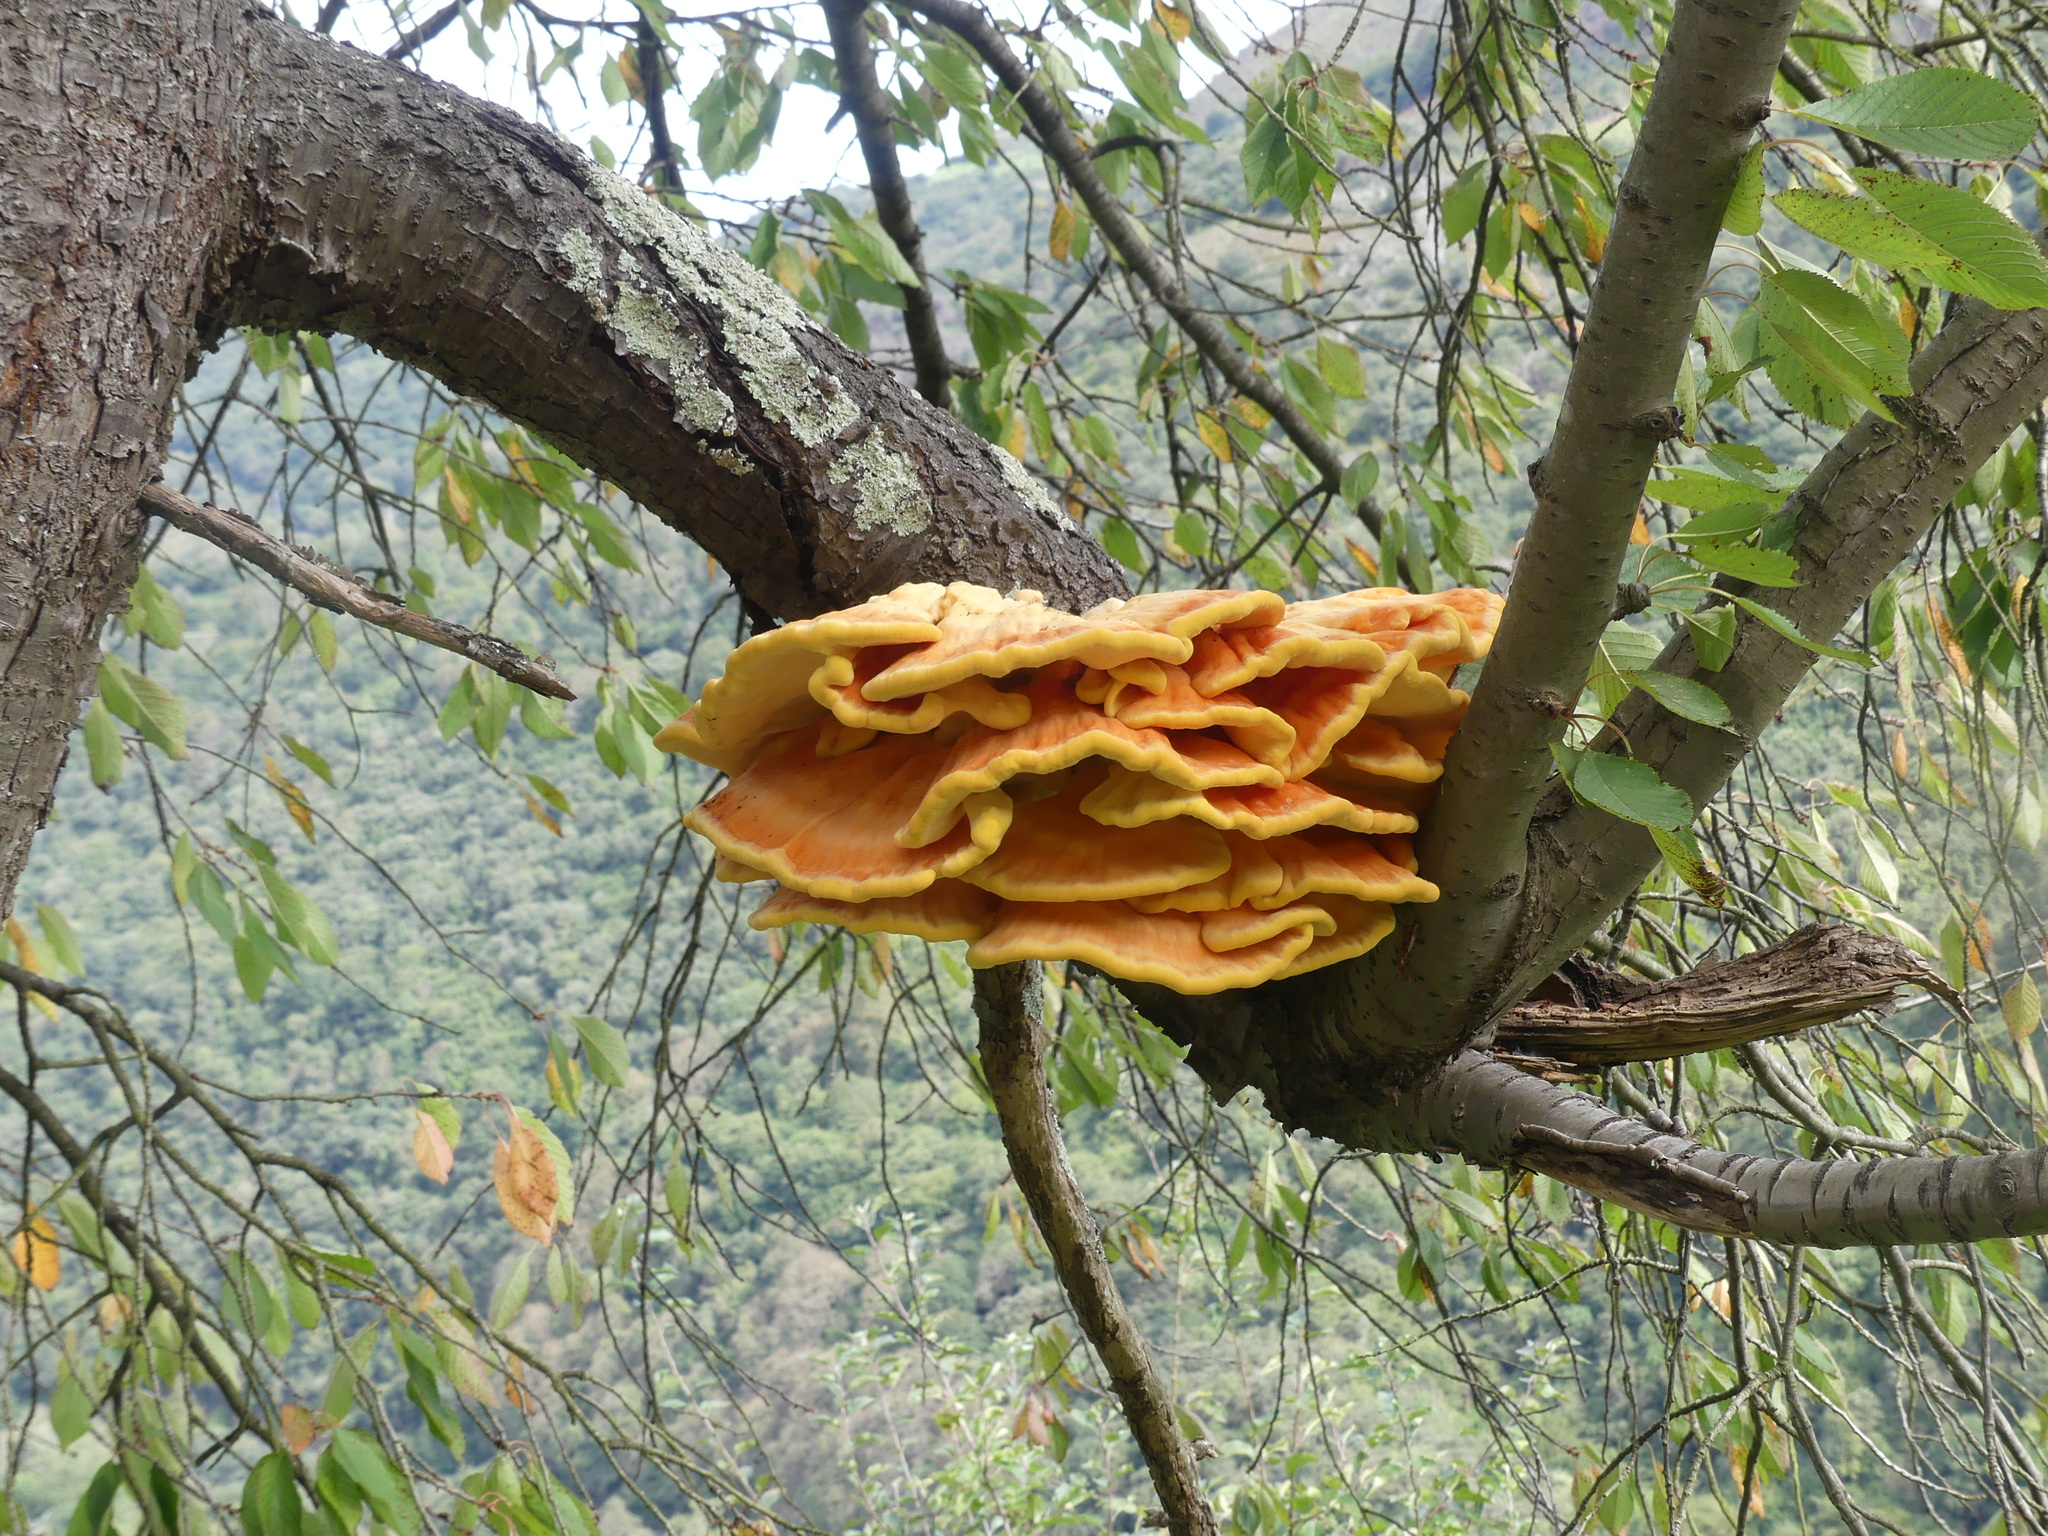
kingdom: Fungi
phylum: Basidiomycota
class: Agaricomycetes
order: Polyporales
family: Laetiporaceae
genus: Laetiporus
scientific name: Laetiporus sulphureus
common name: Chicken of the woods
